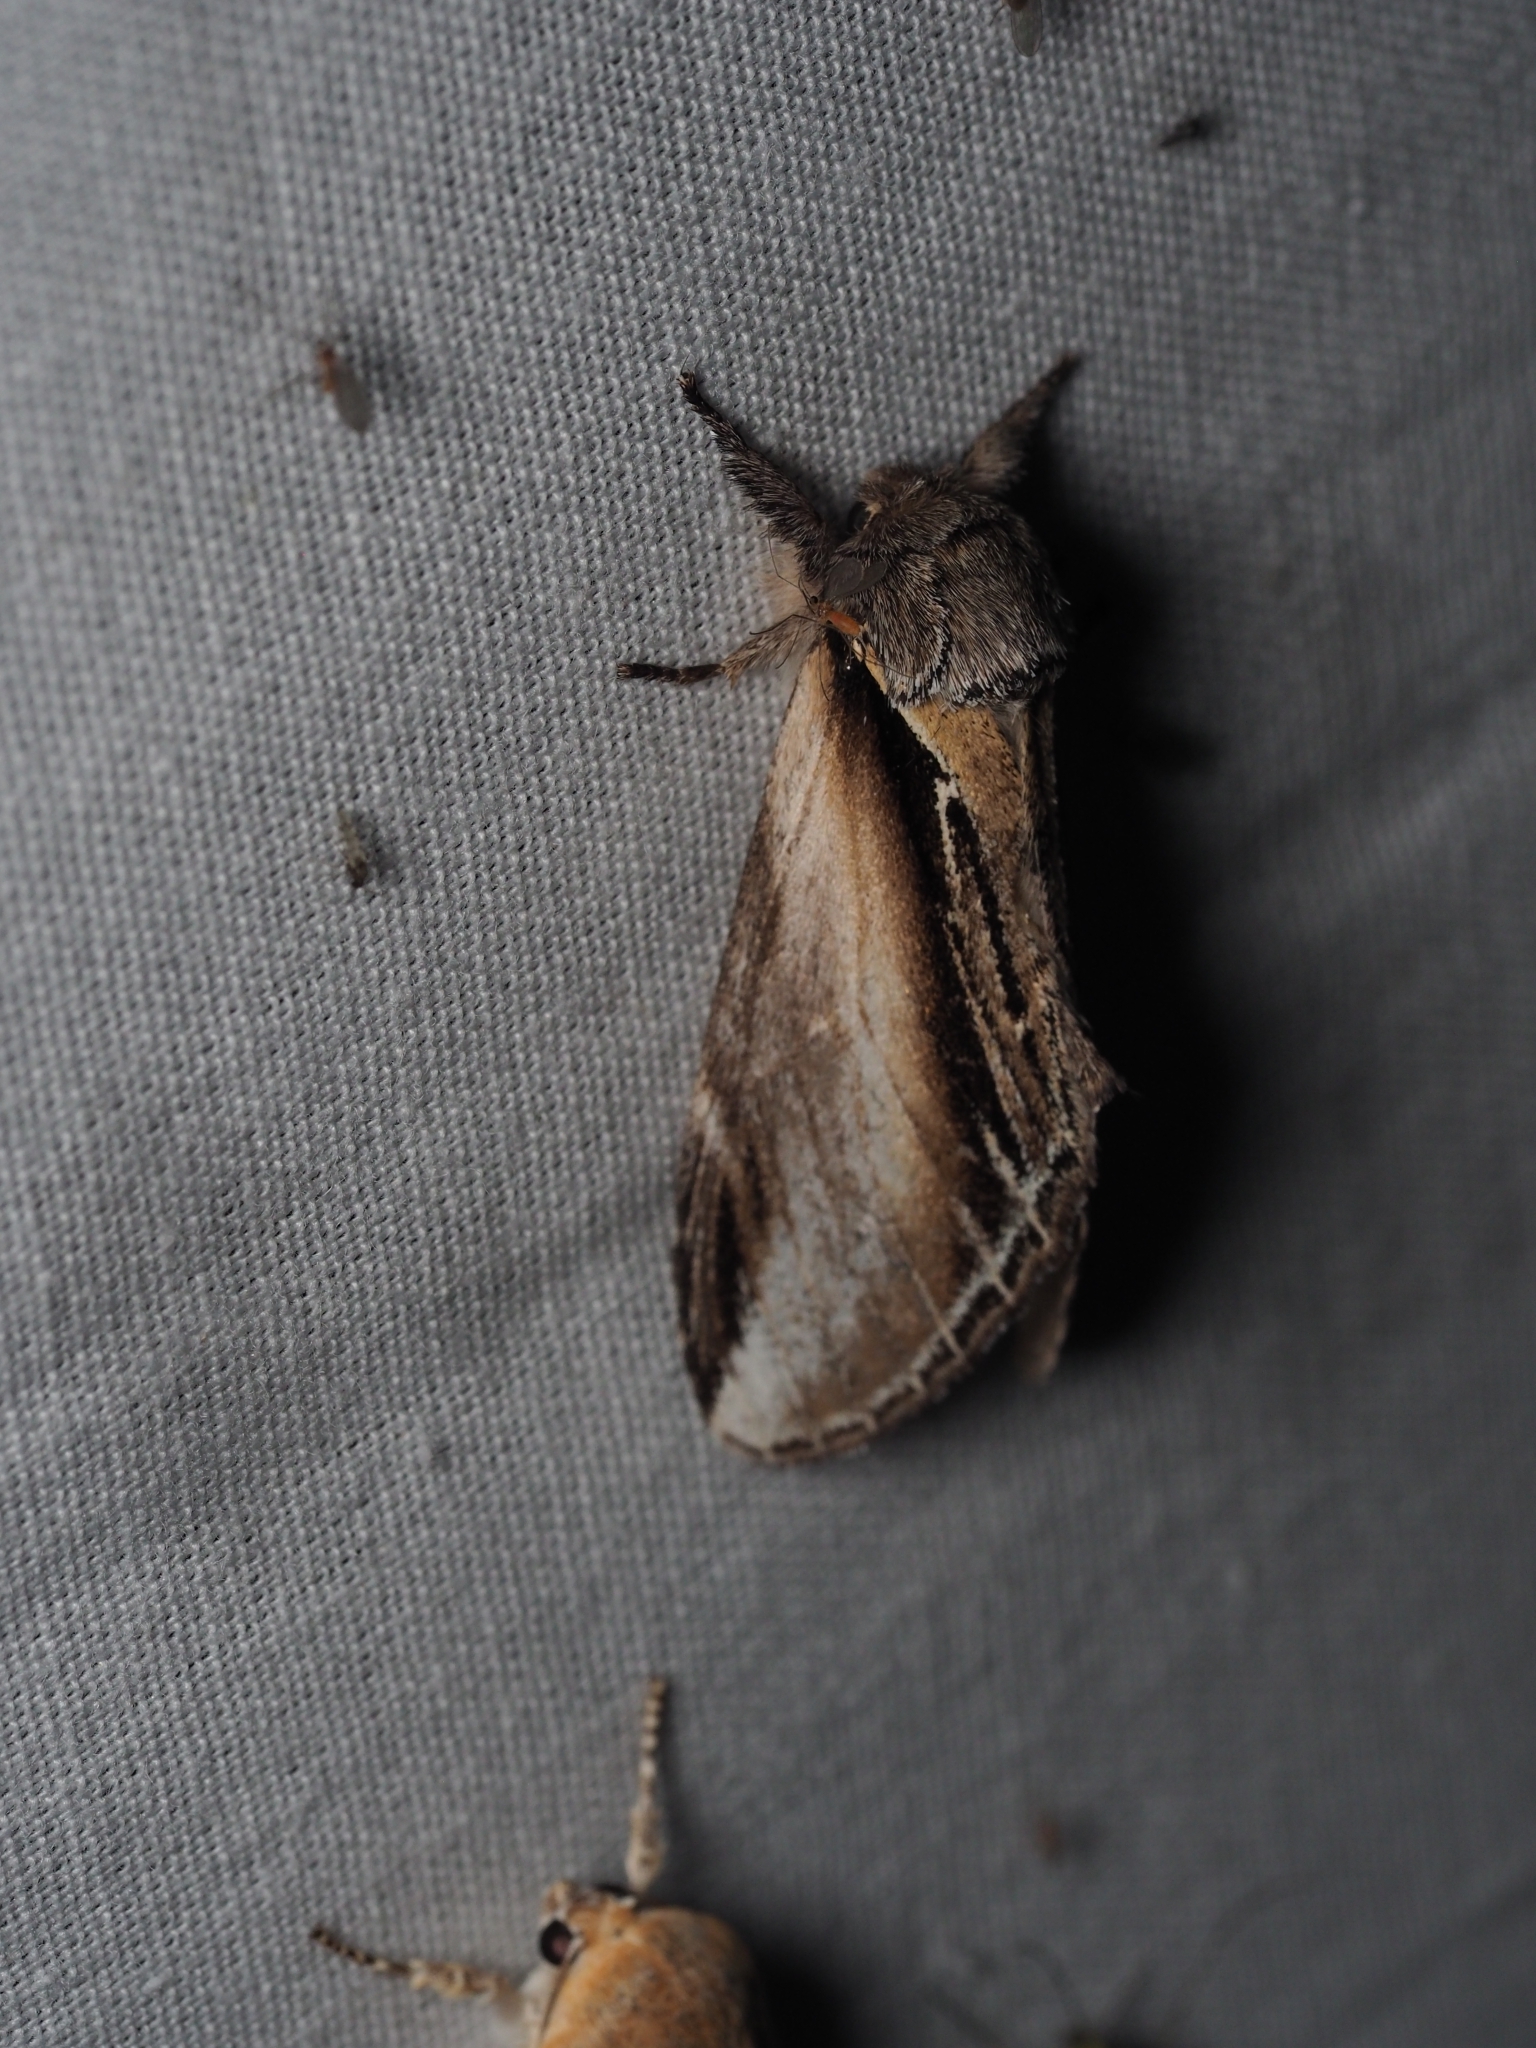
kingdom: Animalia
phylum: Arthropoda
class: Insecta
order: Lepidoptera
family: Notodontidae
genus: Pheosia
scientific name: Pheosia tremula
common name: Swallow prominent
